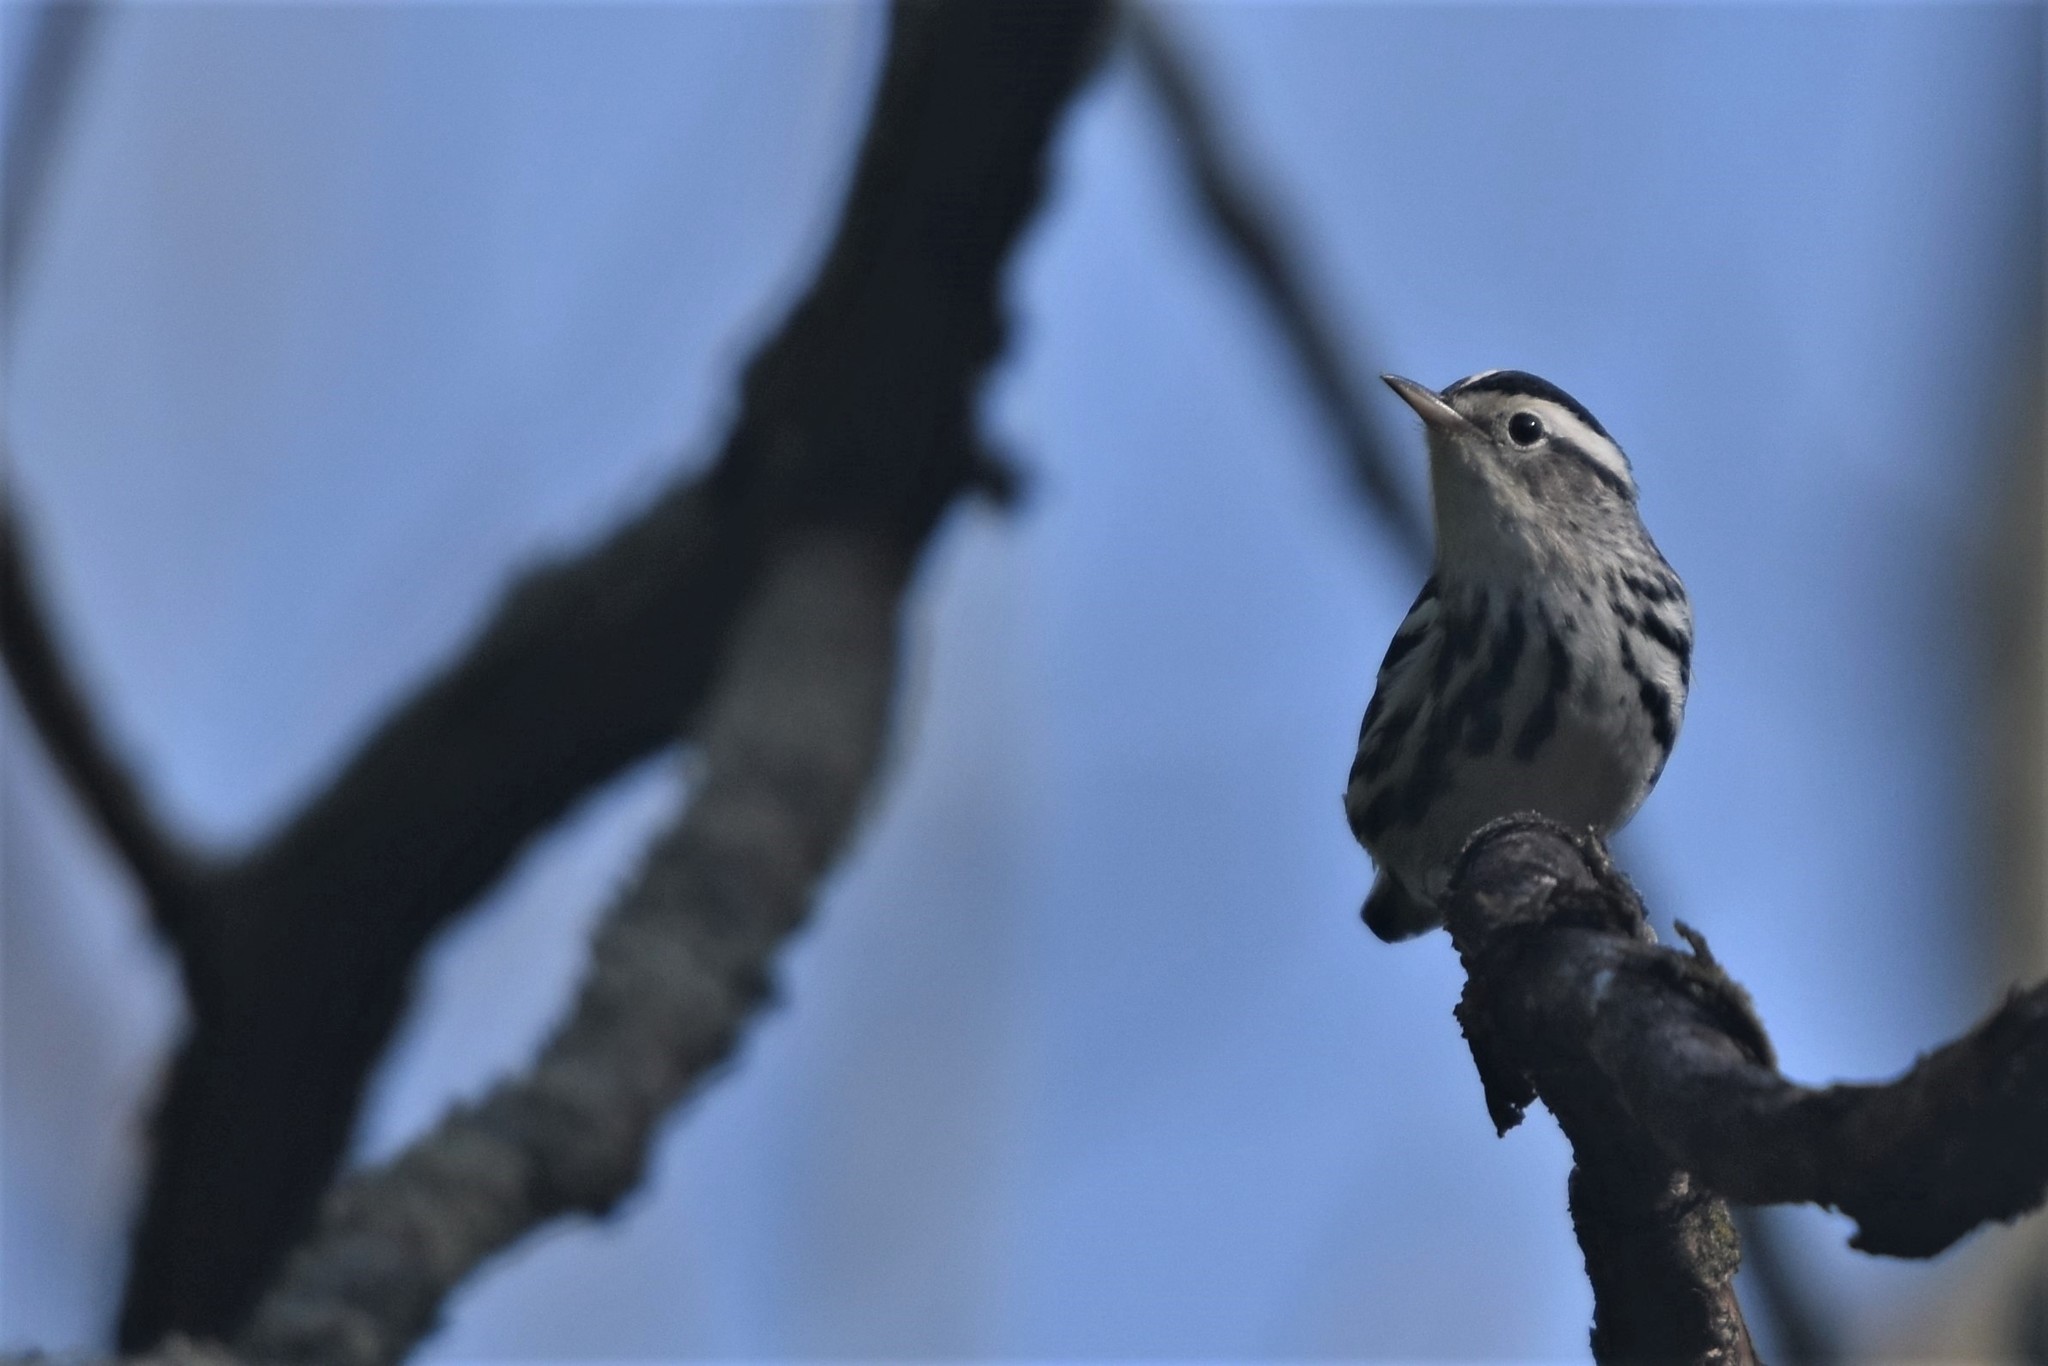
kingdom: Animalia
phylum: Chordata
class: Aves
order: Passeriformes
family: Parulidae
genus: Mniotilta
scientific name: Mniotilta varia
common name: Black-and-white warbler
